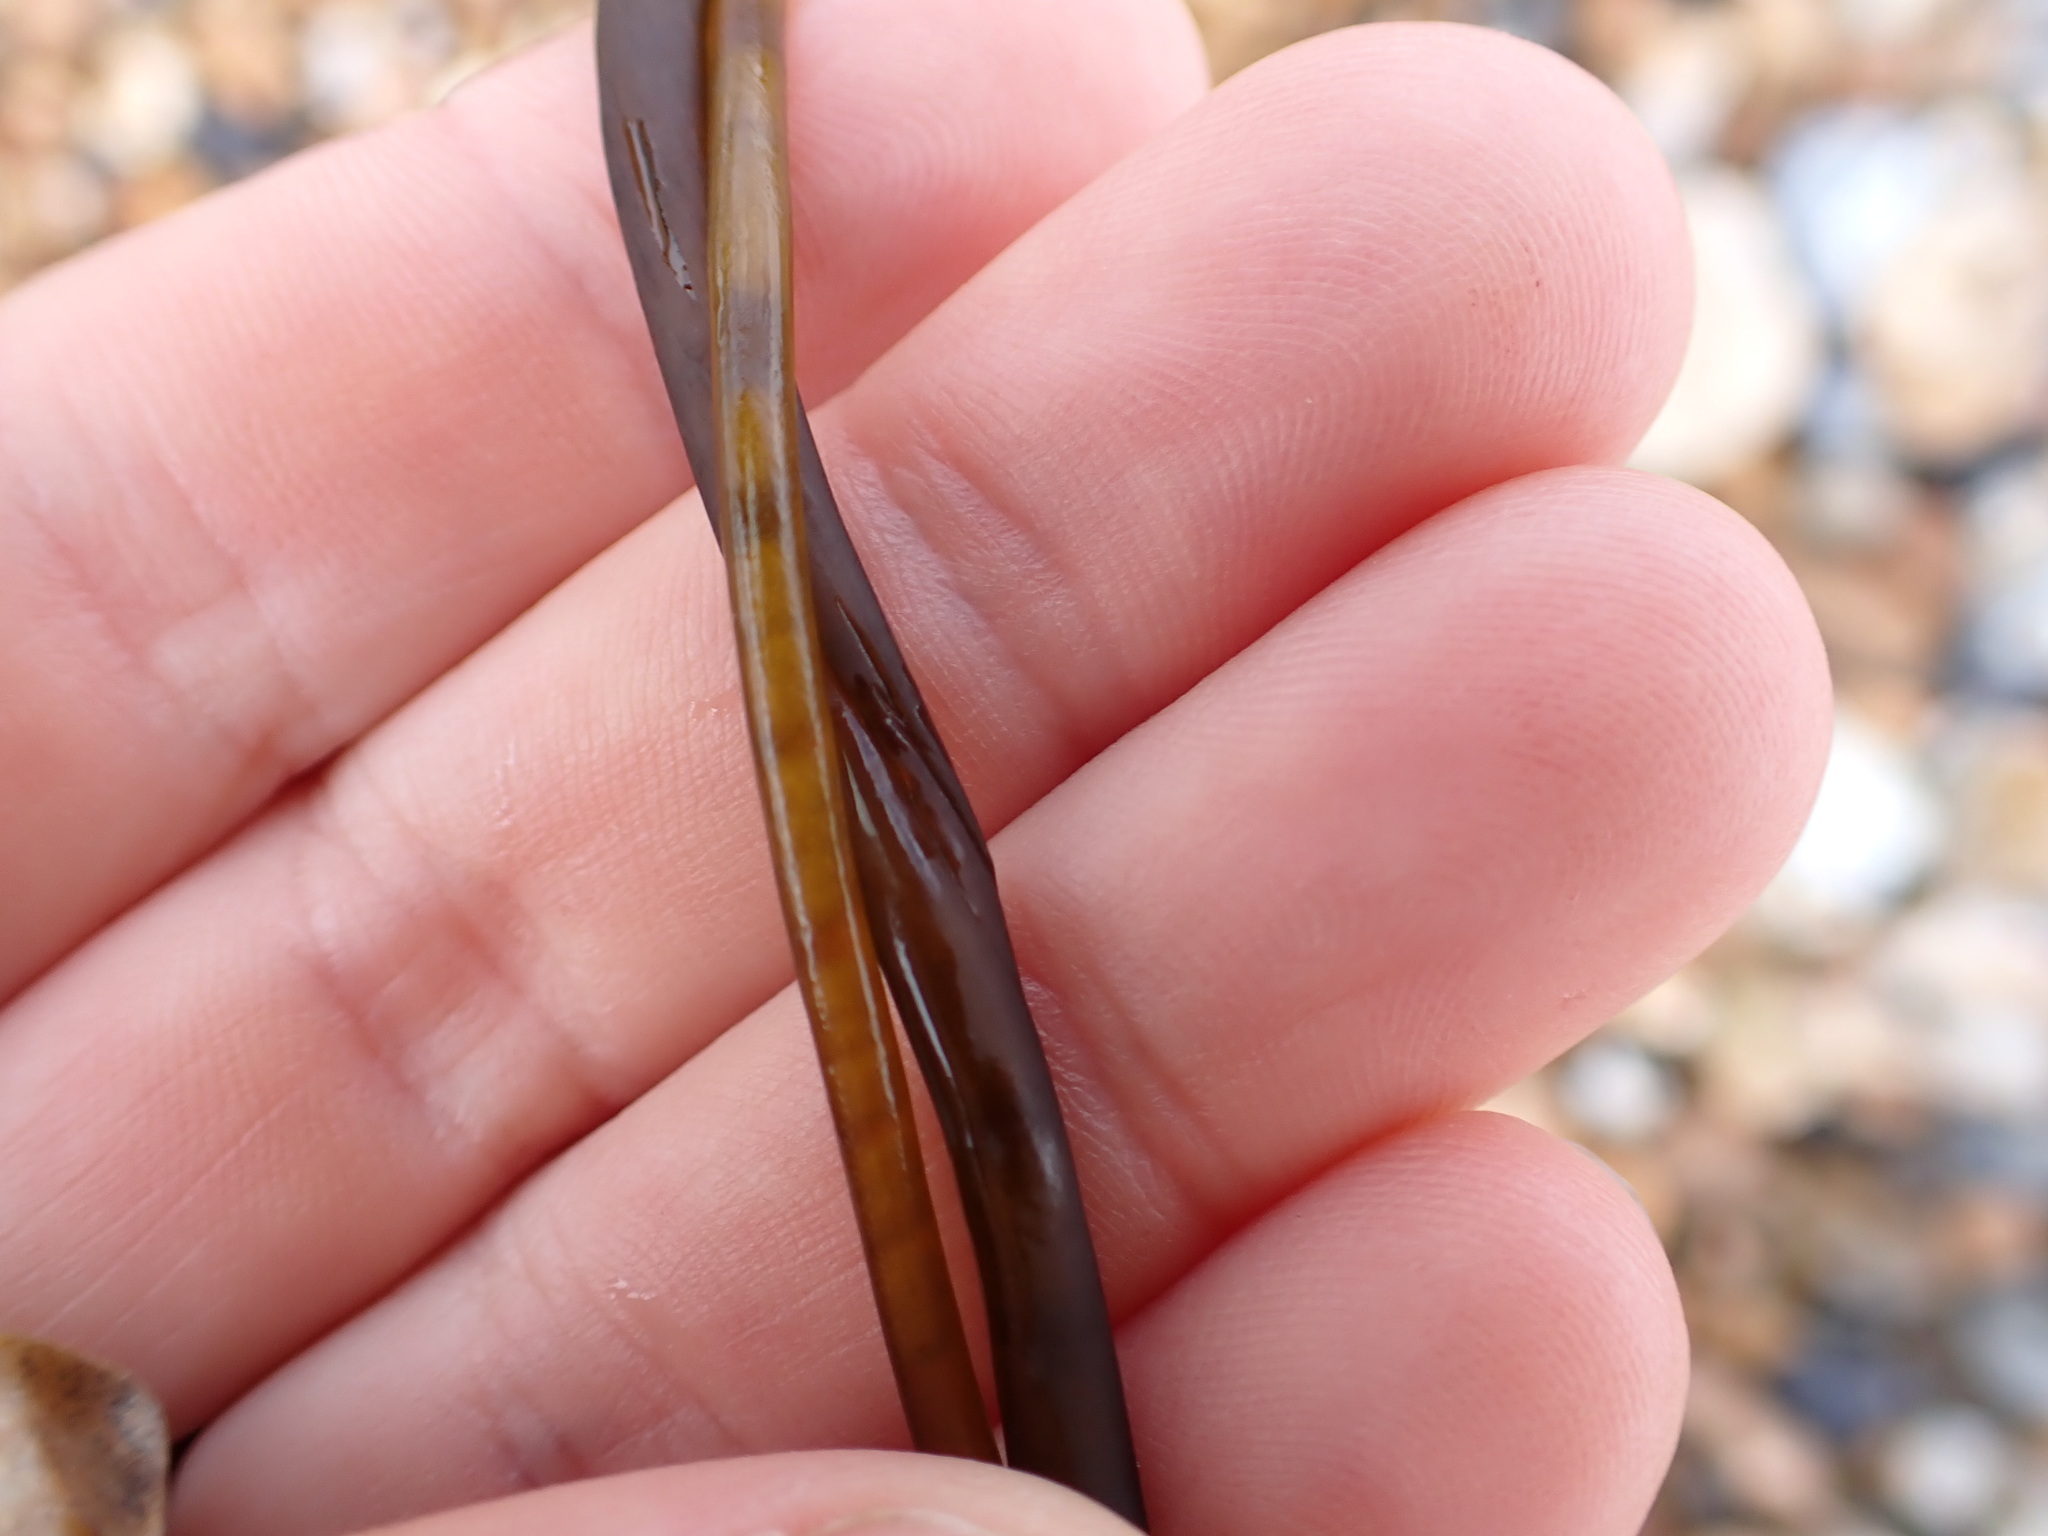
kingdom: Chromista
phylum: Ochrophyta
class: Phaeophyceae
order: Fucales
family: Himanthaliaceae
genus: Himanthalia
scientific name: Himanthalia elongata
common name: Sea-thong
